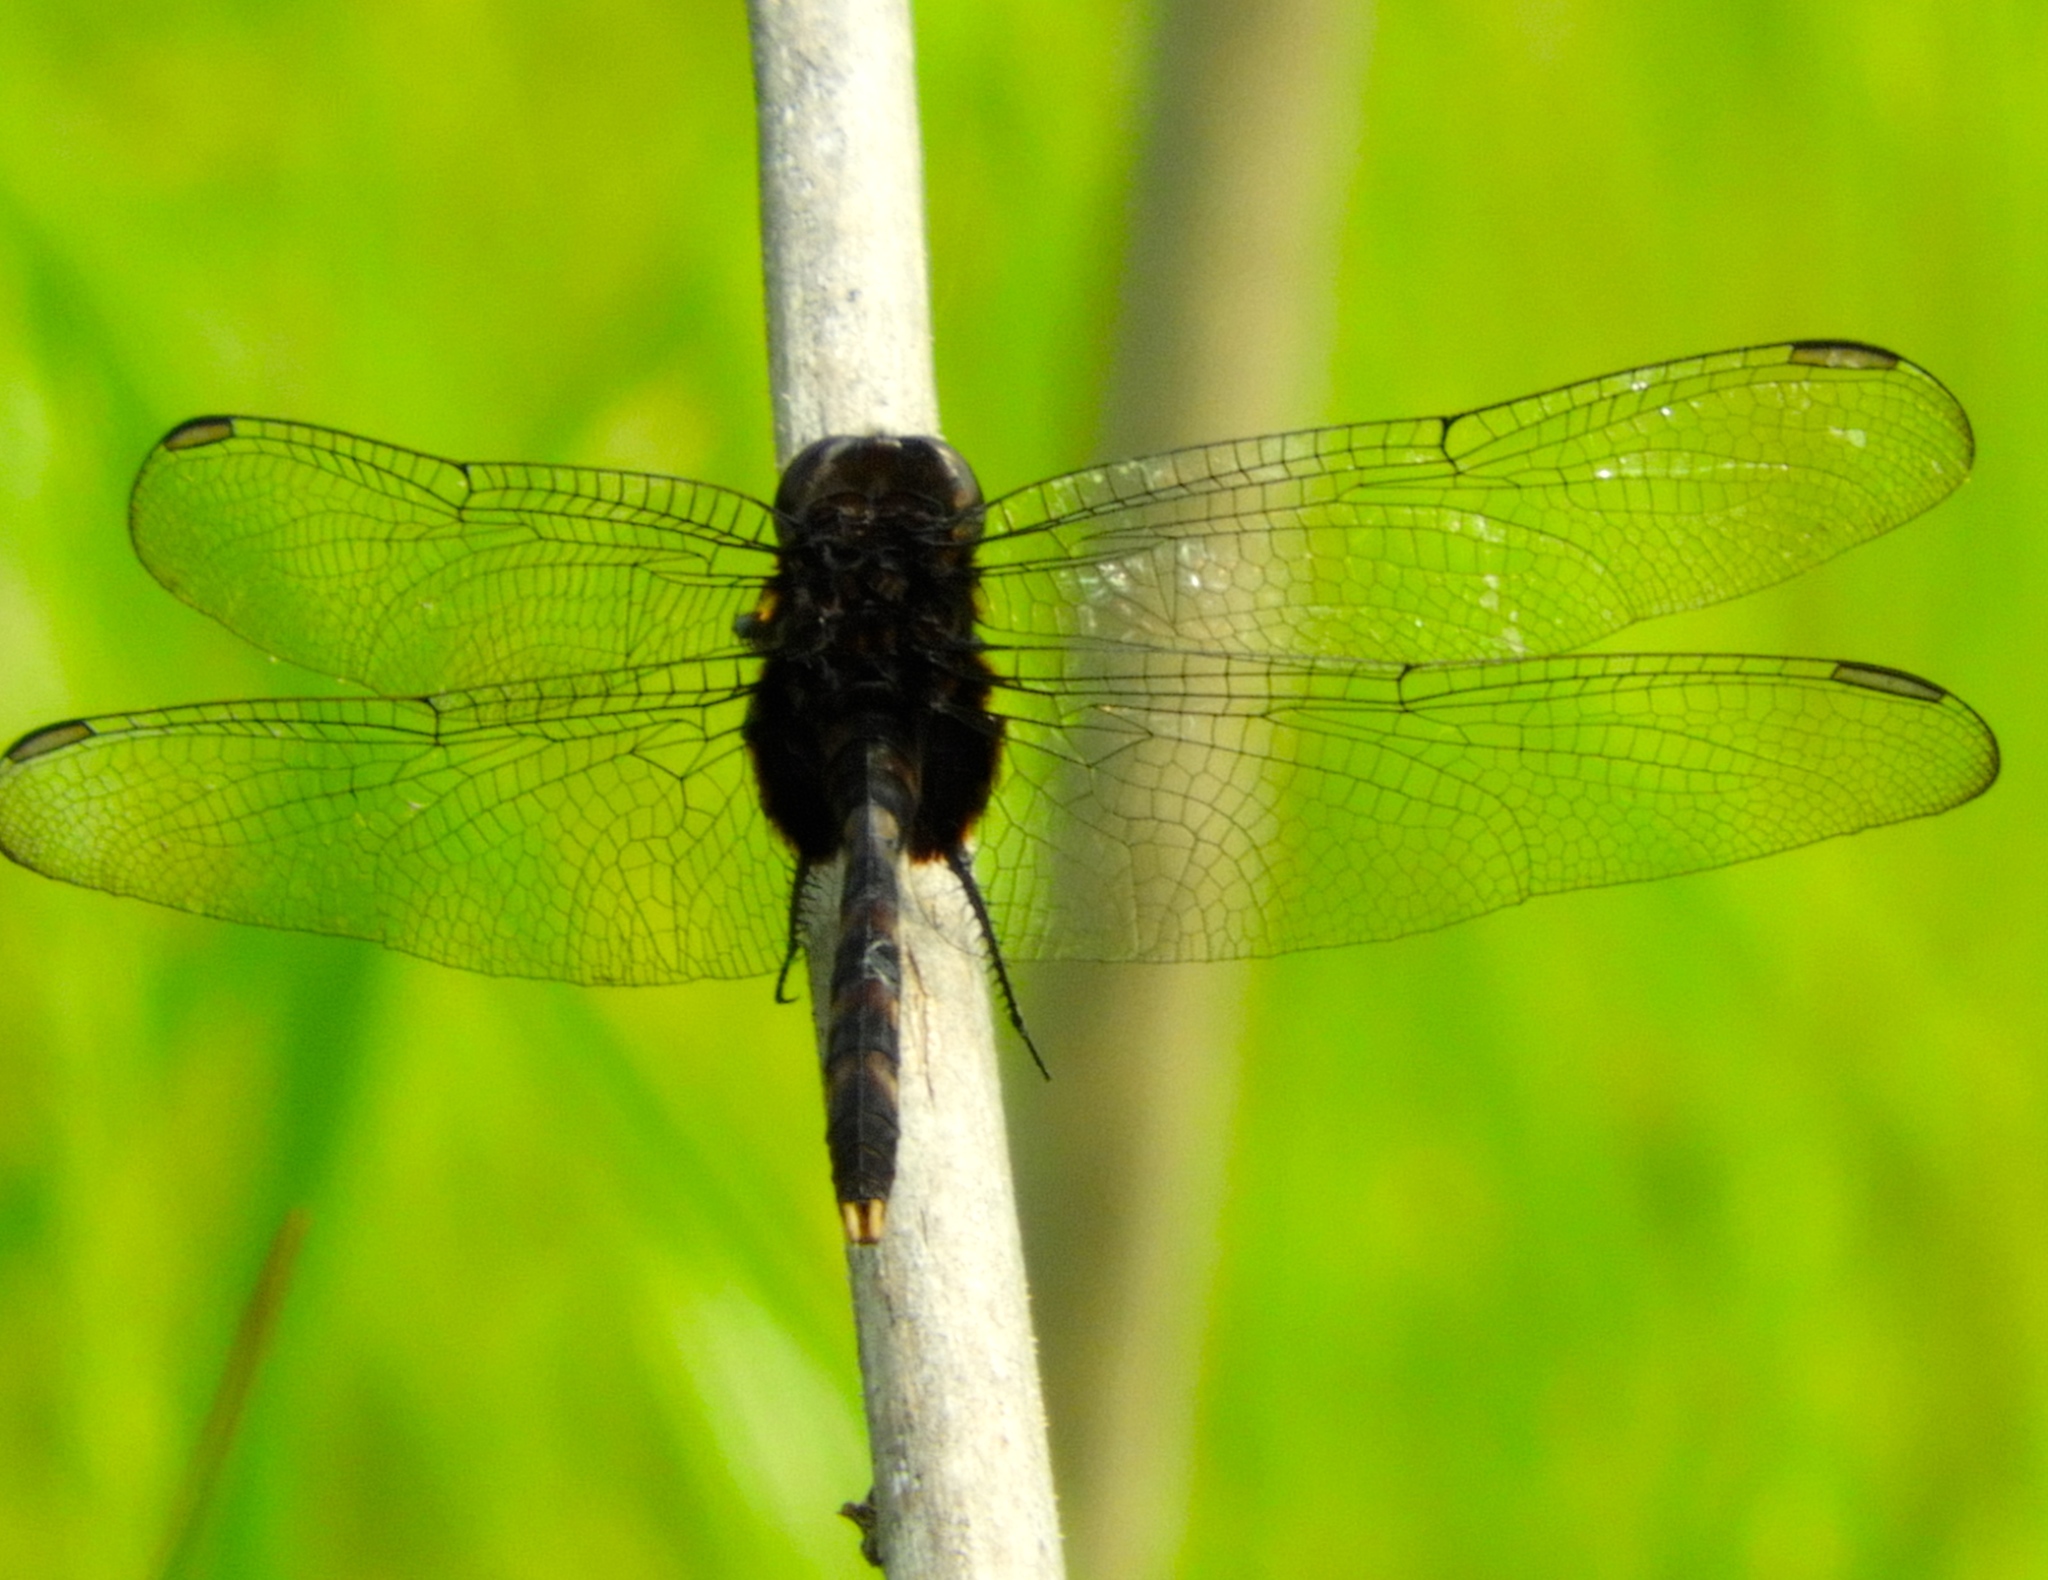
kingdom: Animalia
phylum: Arthropoda
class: Insecta
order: Odonata
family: Libellulidae
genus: Erythemis
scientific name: Erythemis plebeja
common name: Pin-tailed pondhawk
